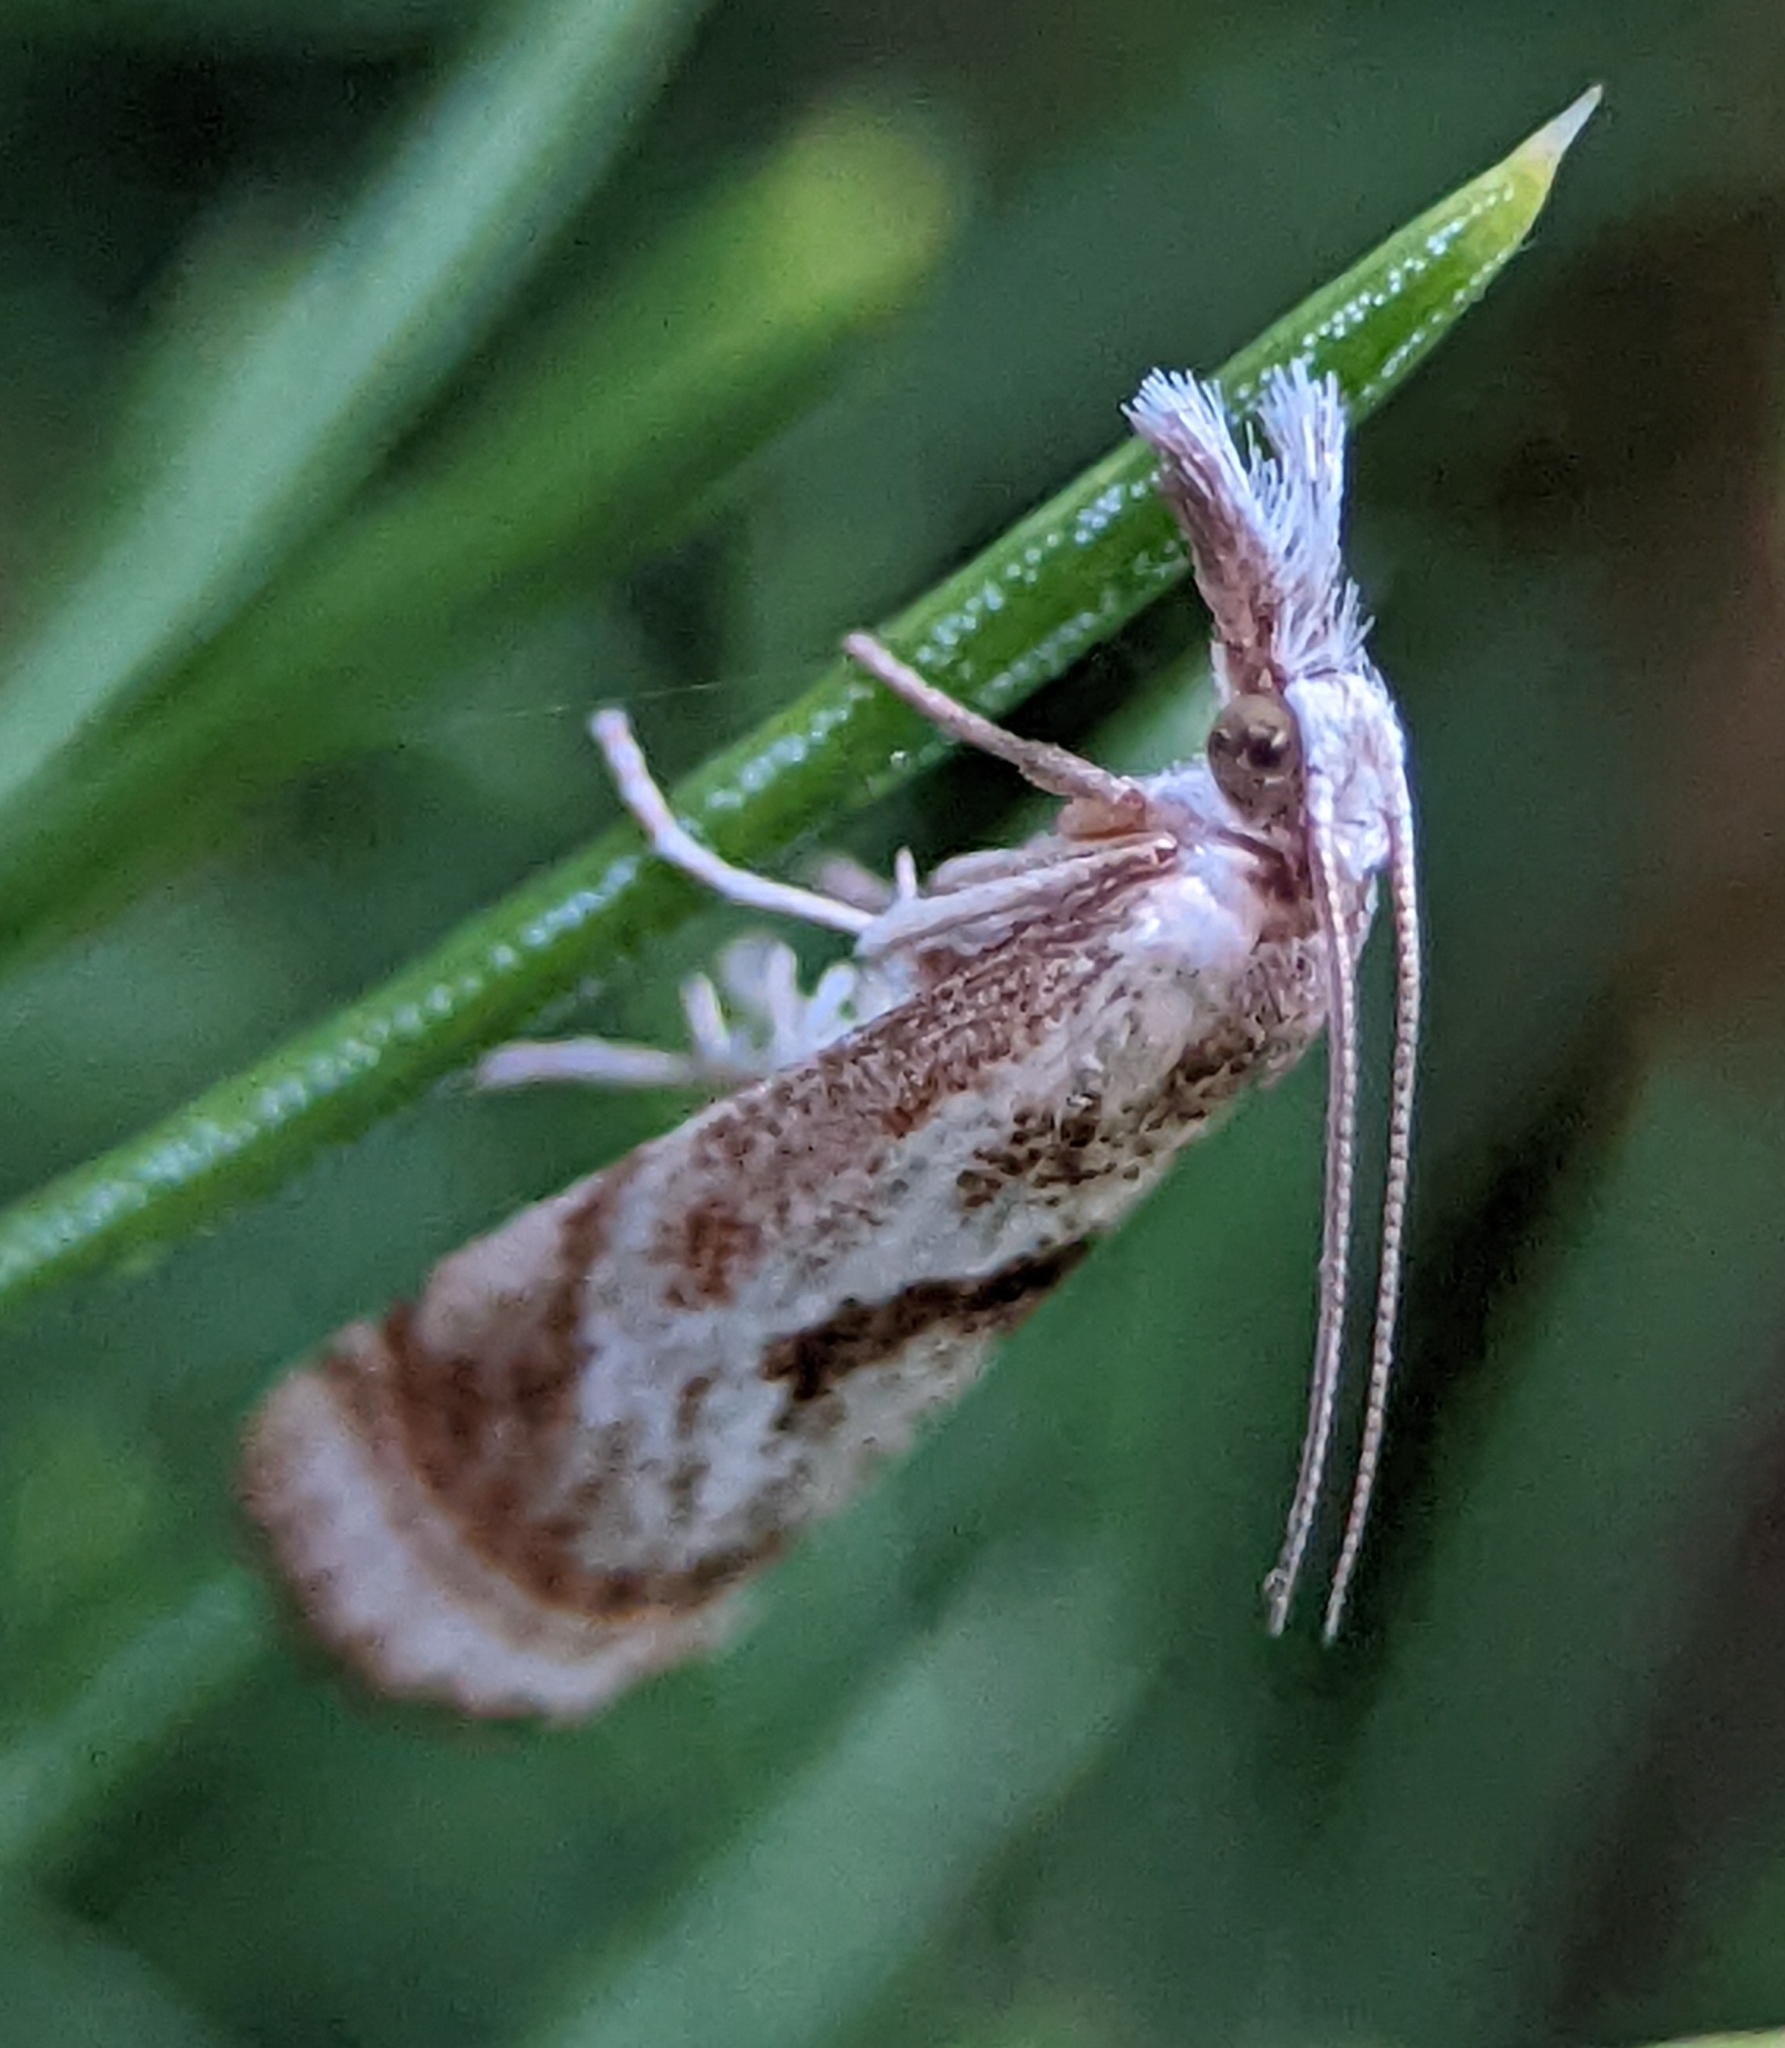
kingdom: Animalia
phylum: Arthropoda
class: Insecta
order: Lepidoptera
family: Crambidae
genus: Microcrambus
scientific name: Microcrambus elegans
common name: Elegant grass-veneer
